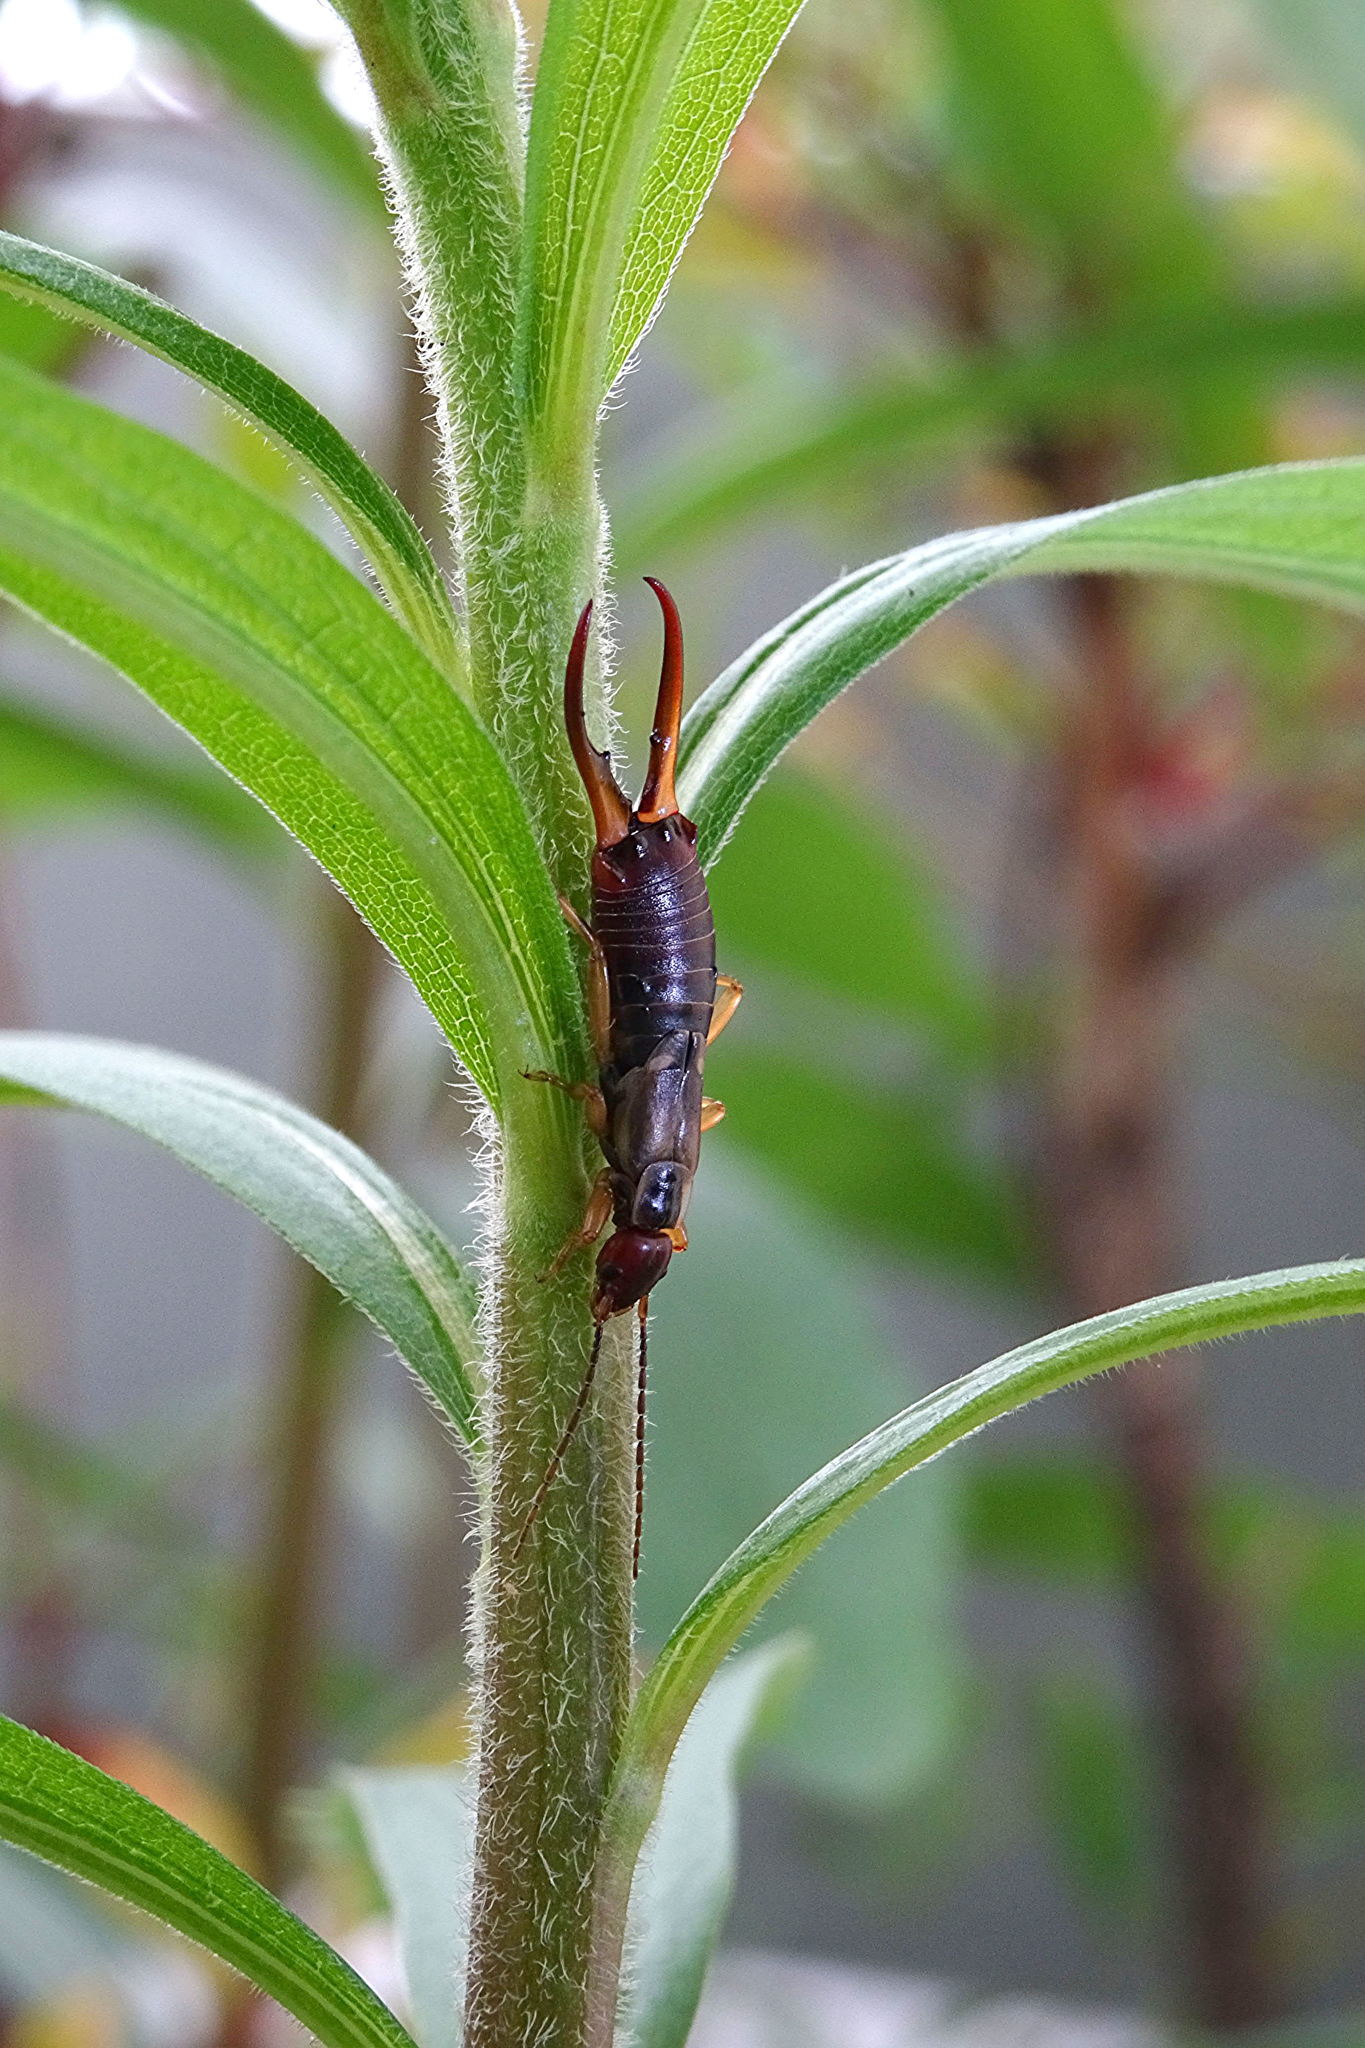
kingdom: Animalia
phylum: Arthropoda
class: Insecta
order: Dermaptera
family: Forficulidae
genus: Forficula
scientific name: Forficula
